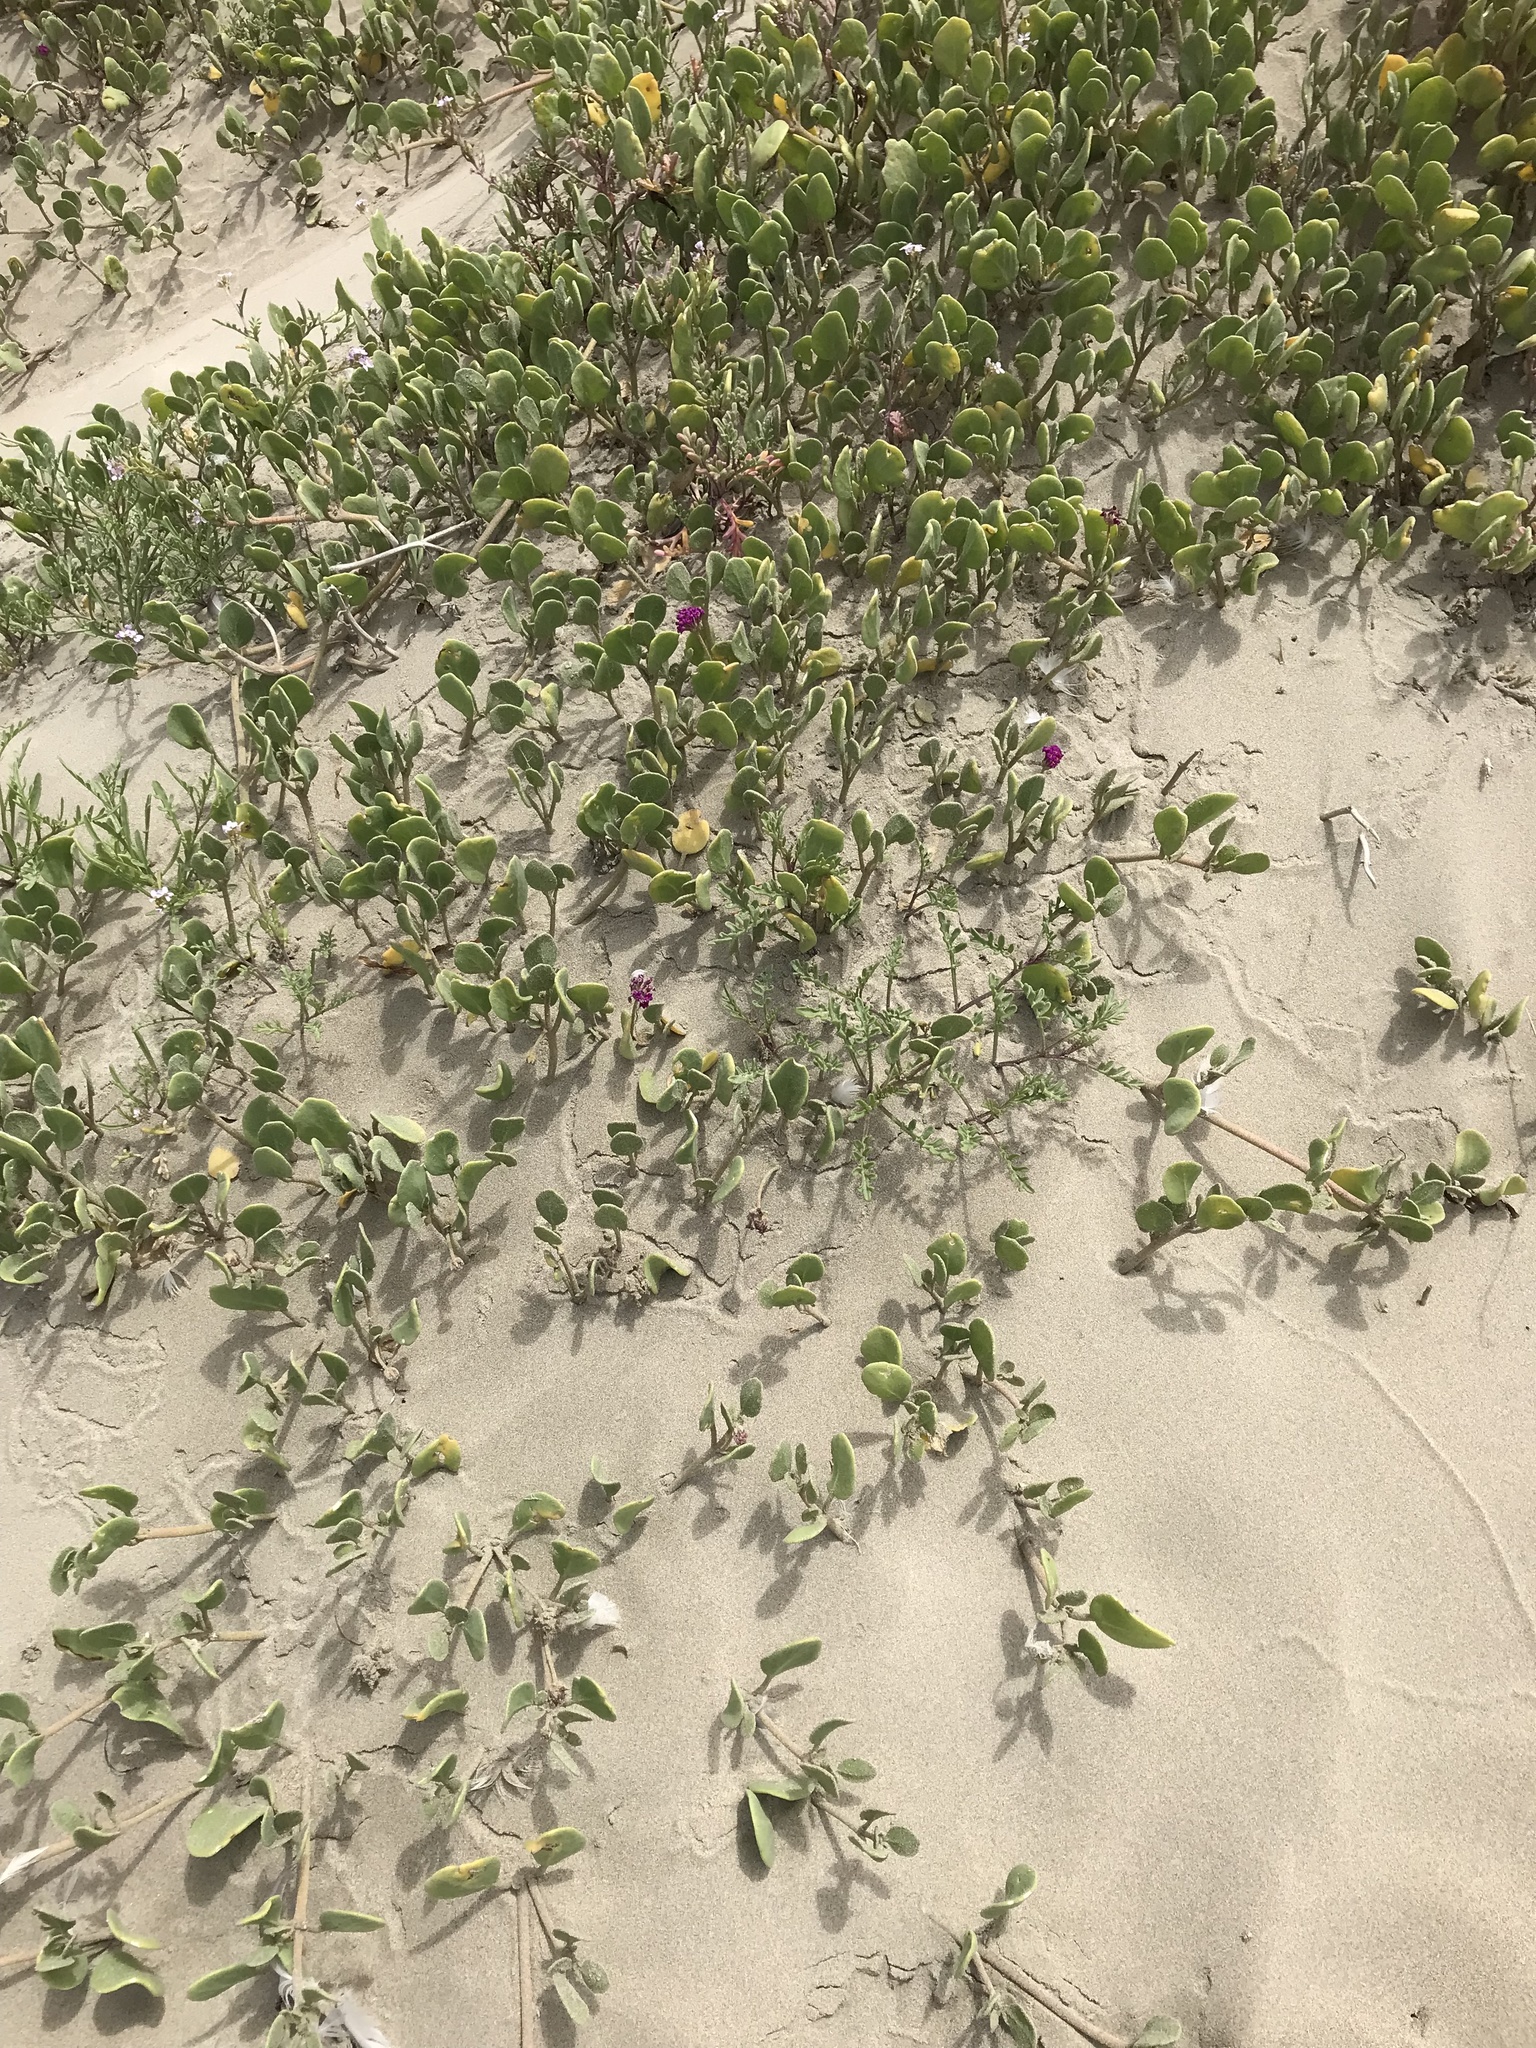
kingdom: Plantae
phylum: Tracheophyta
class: Magnoliopsida
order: Caryophyllales
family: Nyctaginaceae
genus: Abronia
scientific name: Abronia maritima
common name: Red sand-verbena
